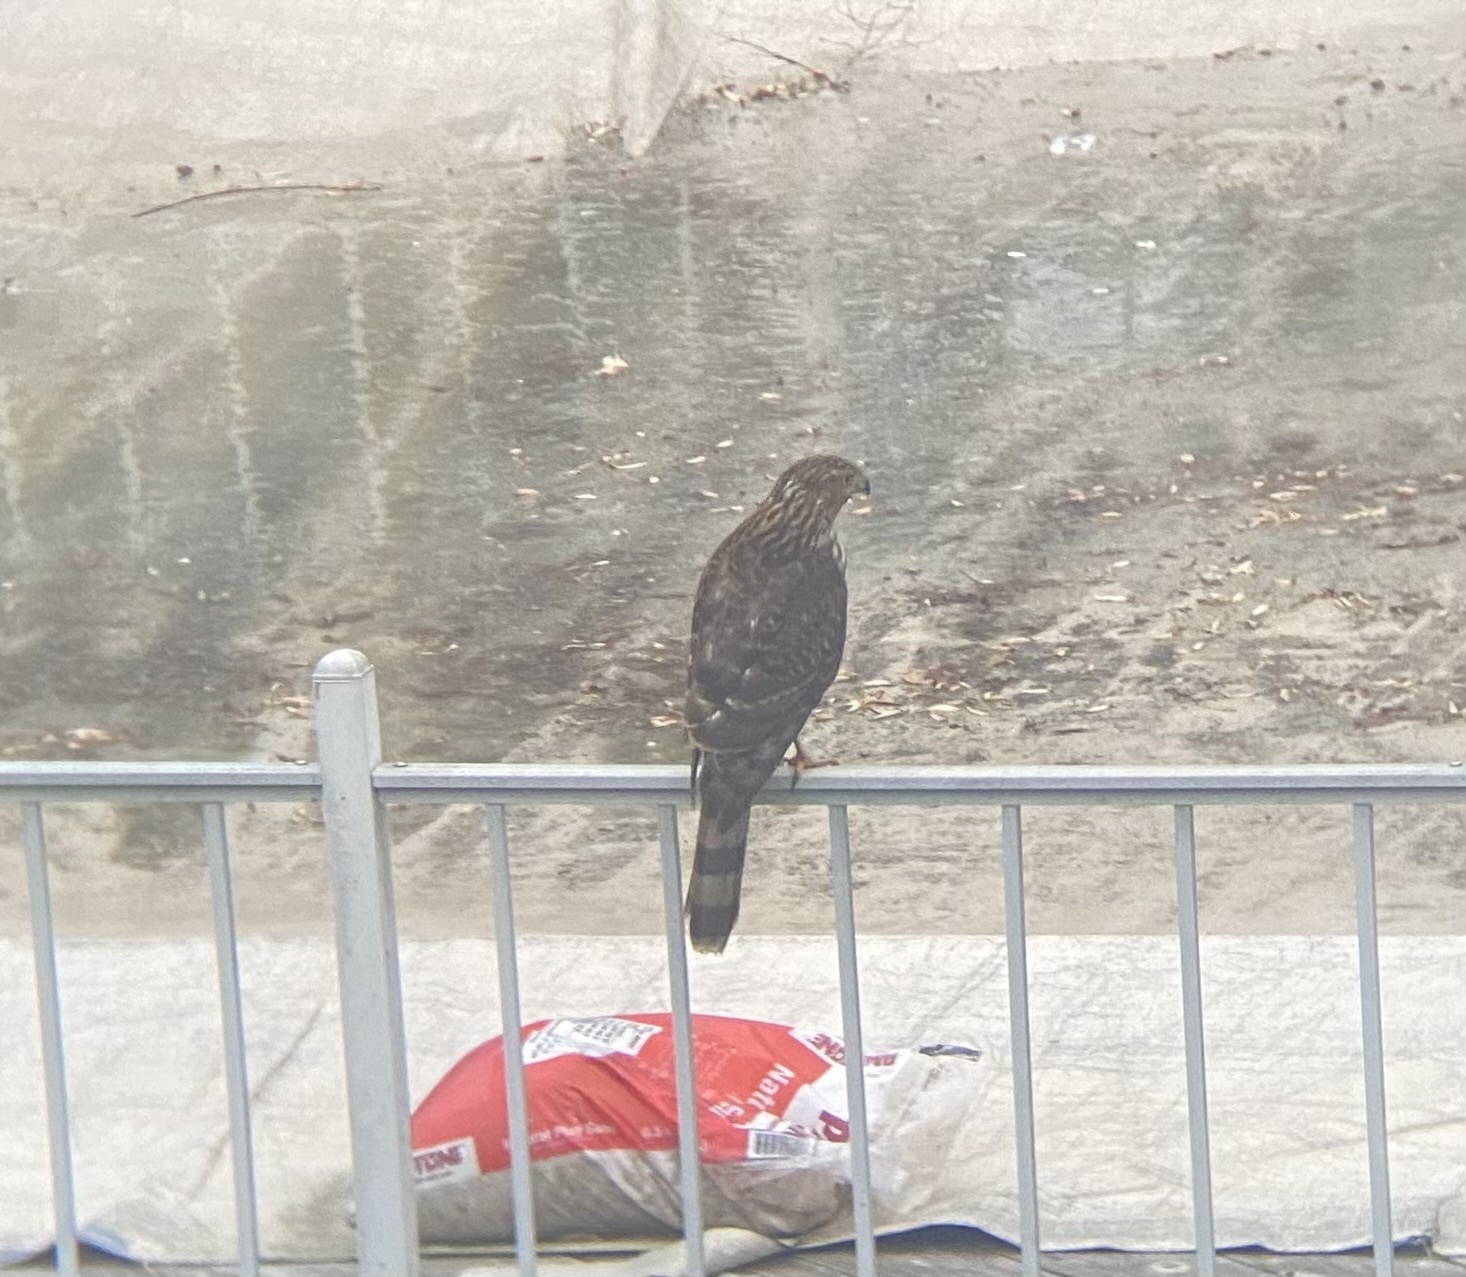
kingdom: Animalia
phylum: Chordata
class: Aves
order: Accipitriformes
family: Accipitridae
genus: Accipiter
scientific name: Accipiter cooperii
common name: Cooper's hawk
